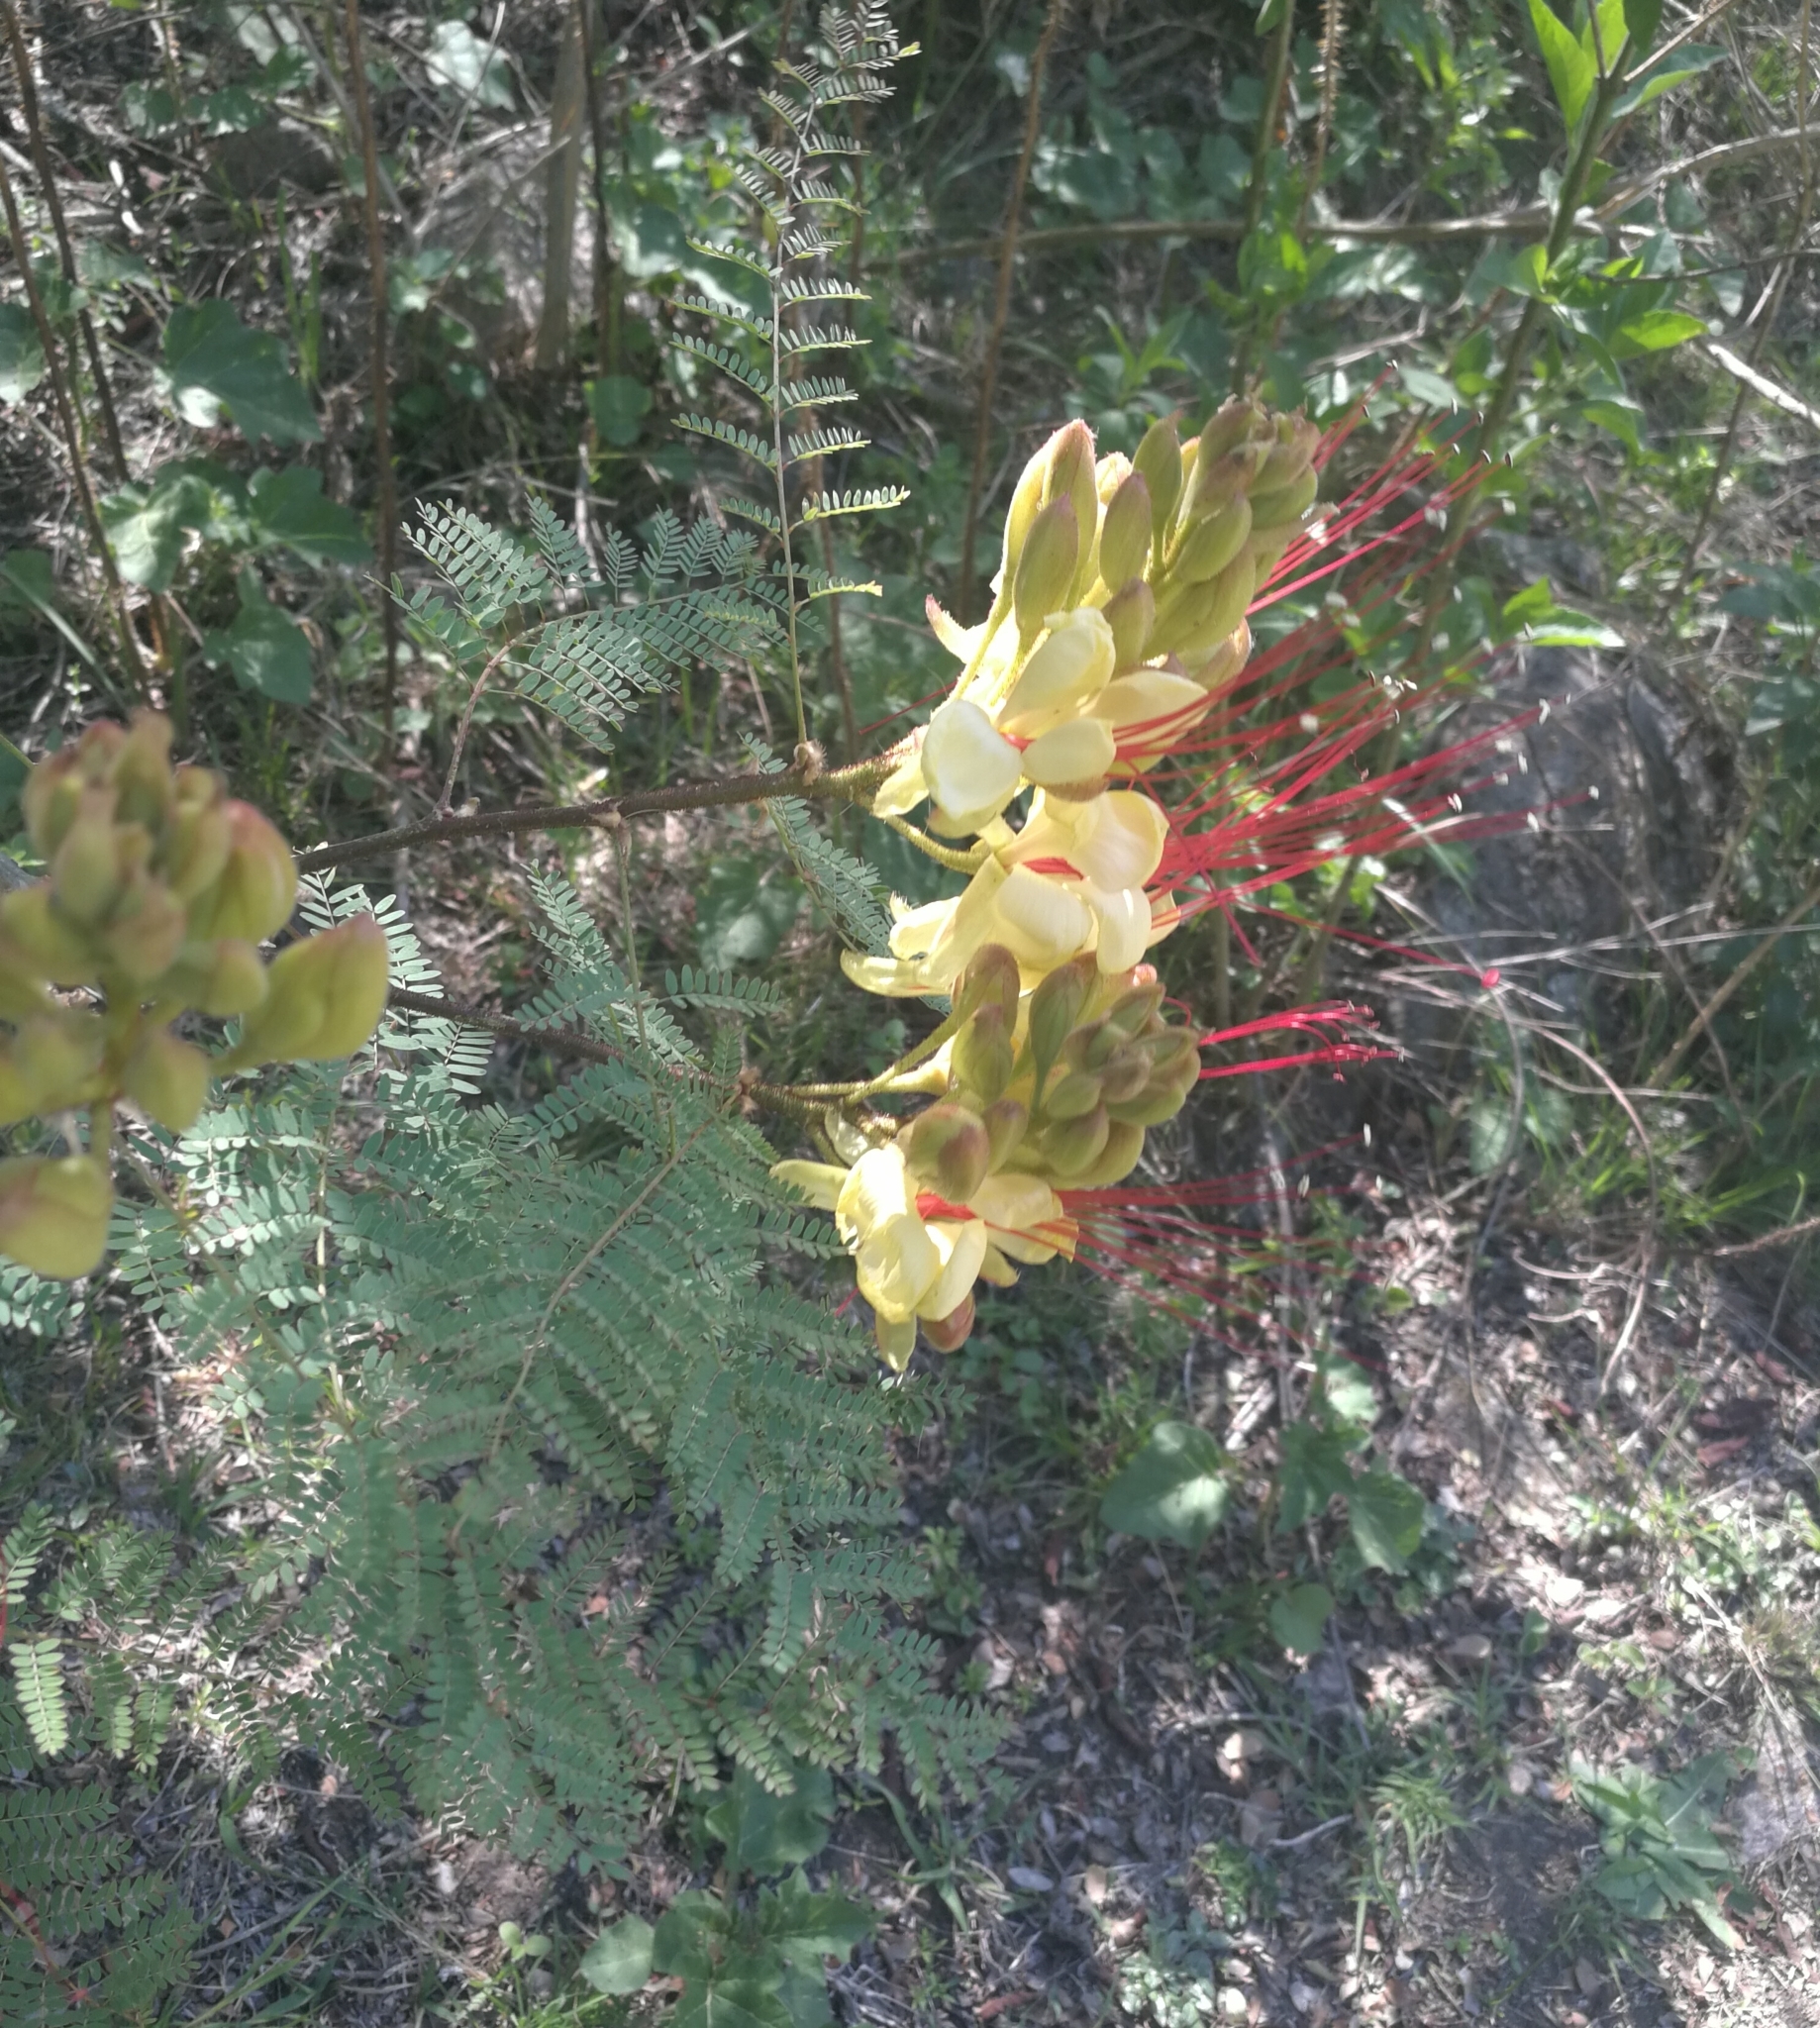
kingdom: Plantae
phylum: Tracheophyta
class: Magnoliopsida
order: Fabales
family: Fabaceae
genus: Erythrostemon
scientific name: Erythrostemon gilliesii
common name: Bird-of-paradise shrub
